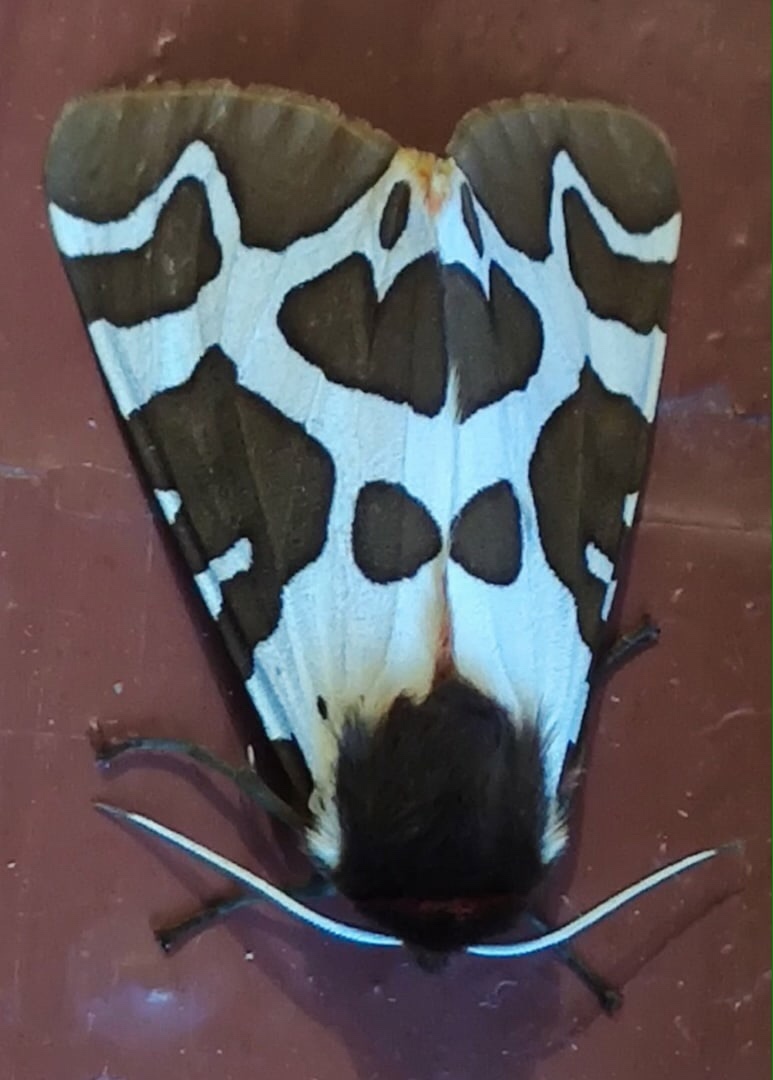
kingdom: Animalia
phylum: Arthropoda
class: Insecta
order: Lepidoptera
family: Erebidae
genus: Arctia
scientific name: Arctia caja
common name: Garden tiger
